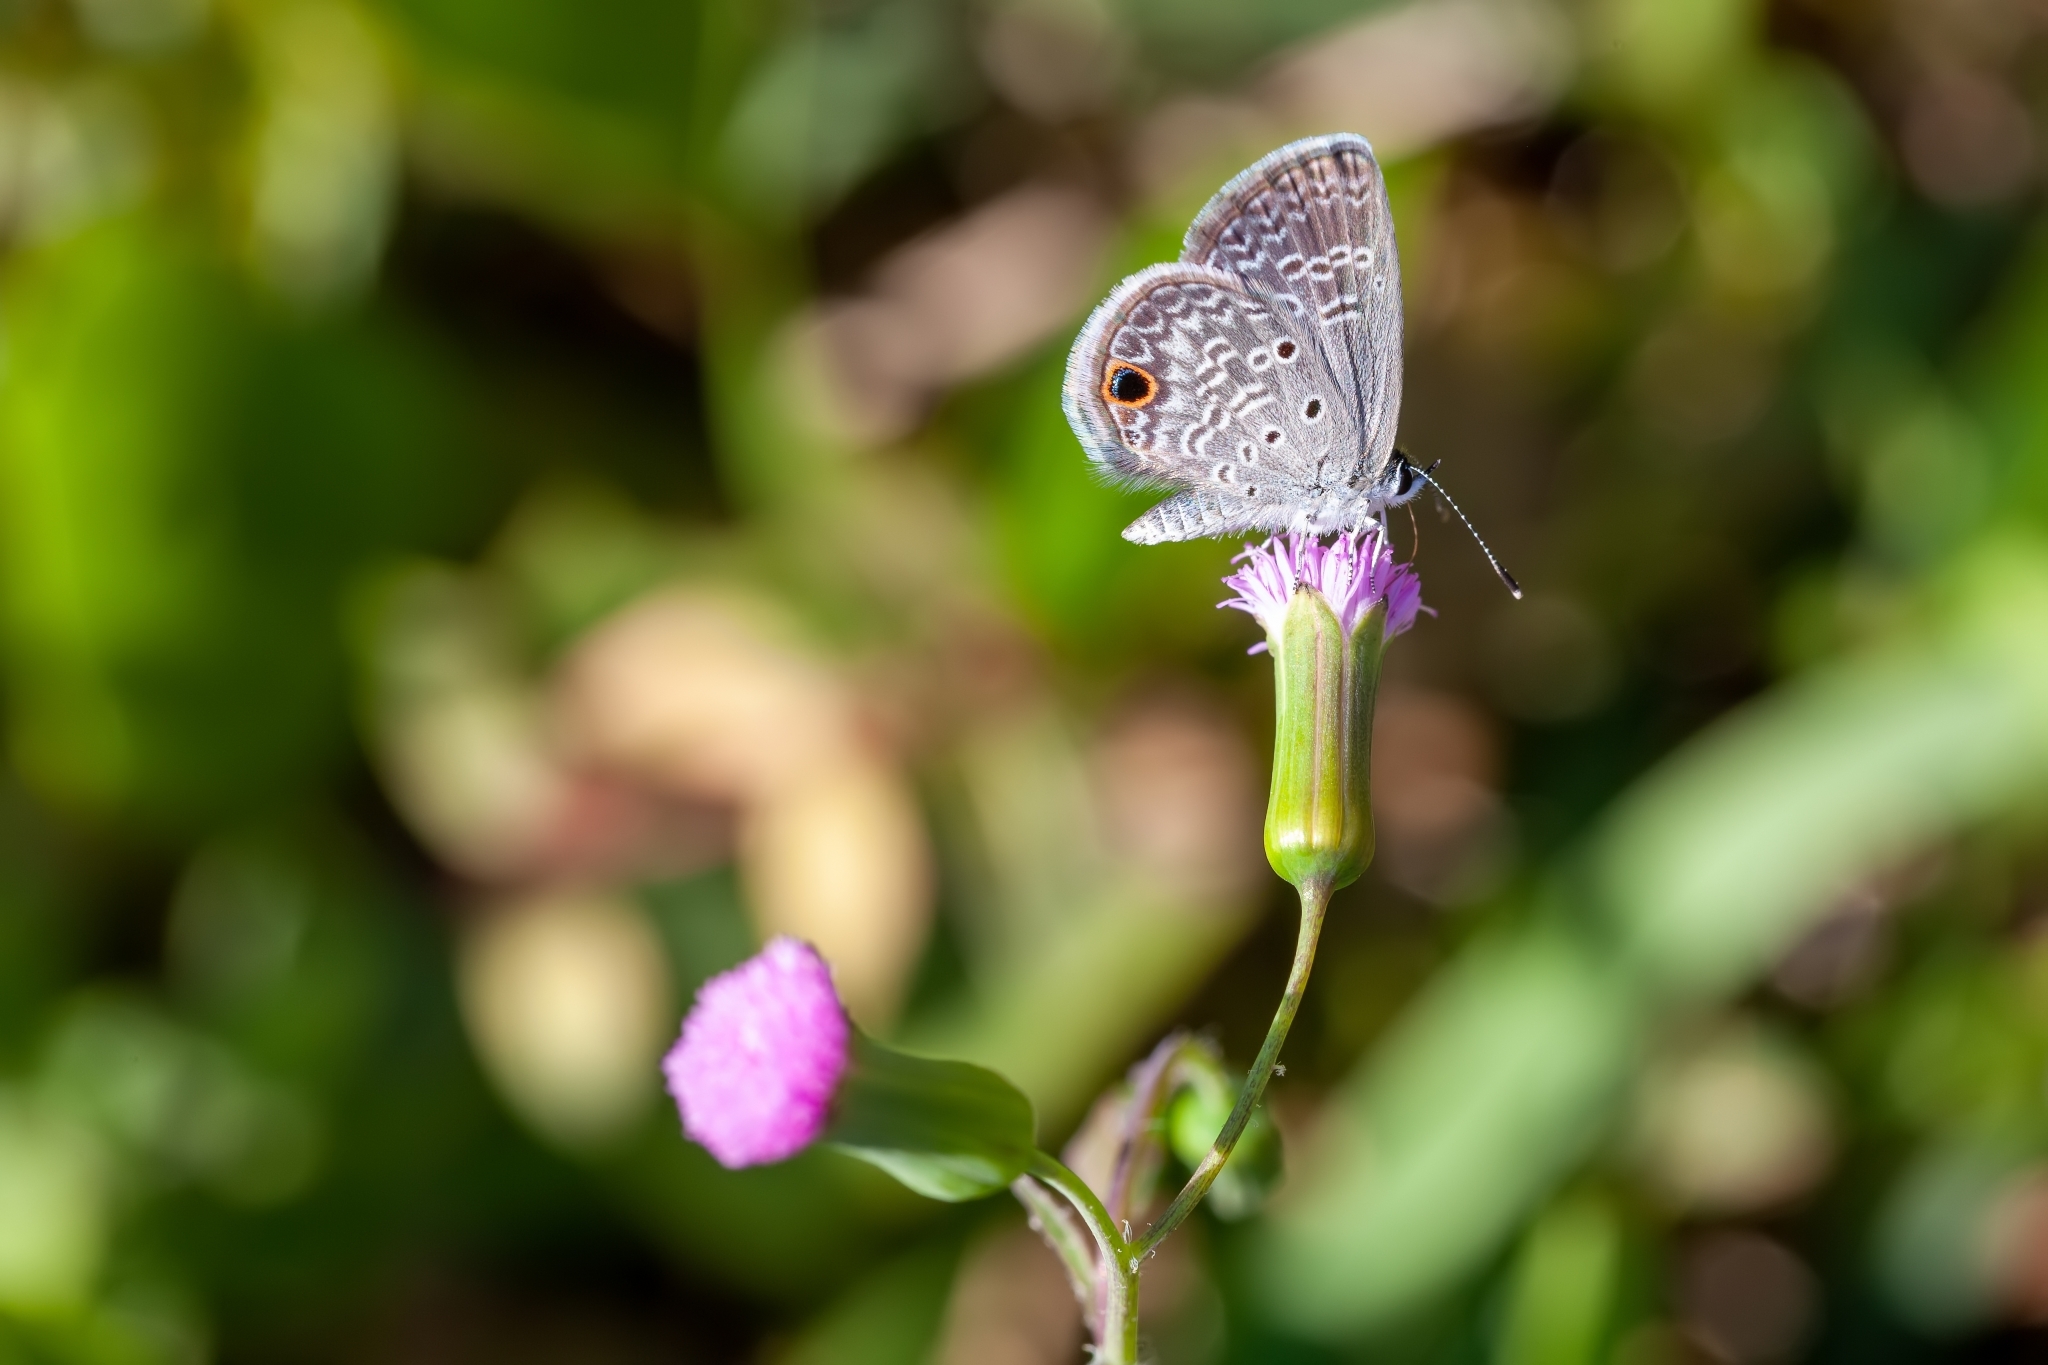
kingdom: Animalia
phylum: Arthropoda
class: Insecta
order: Lepidoptera
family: Lycaenidae
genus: Hemiargus
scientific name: Hemiargus ceraunus
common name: Ceraunus blue
